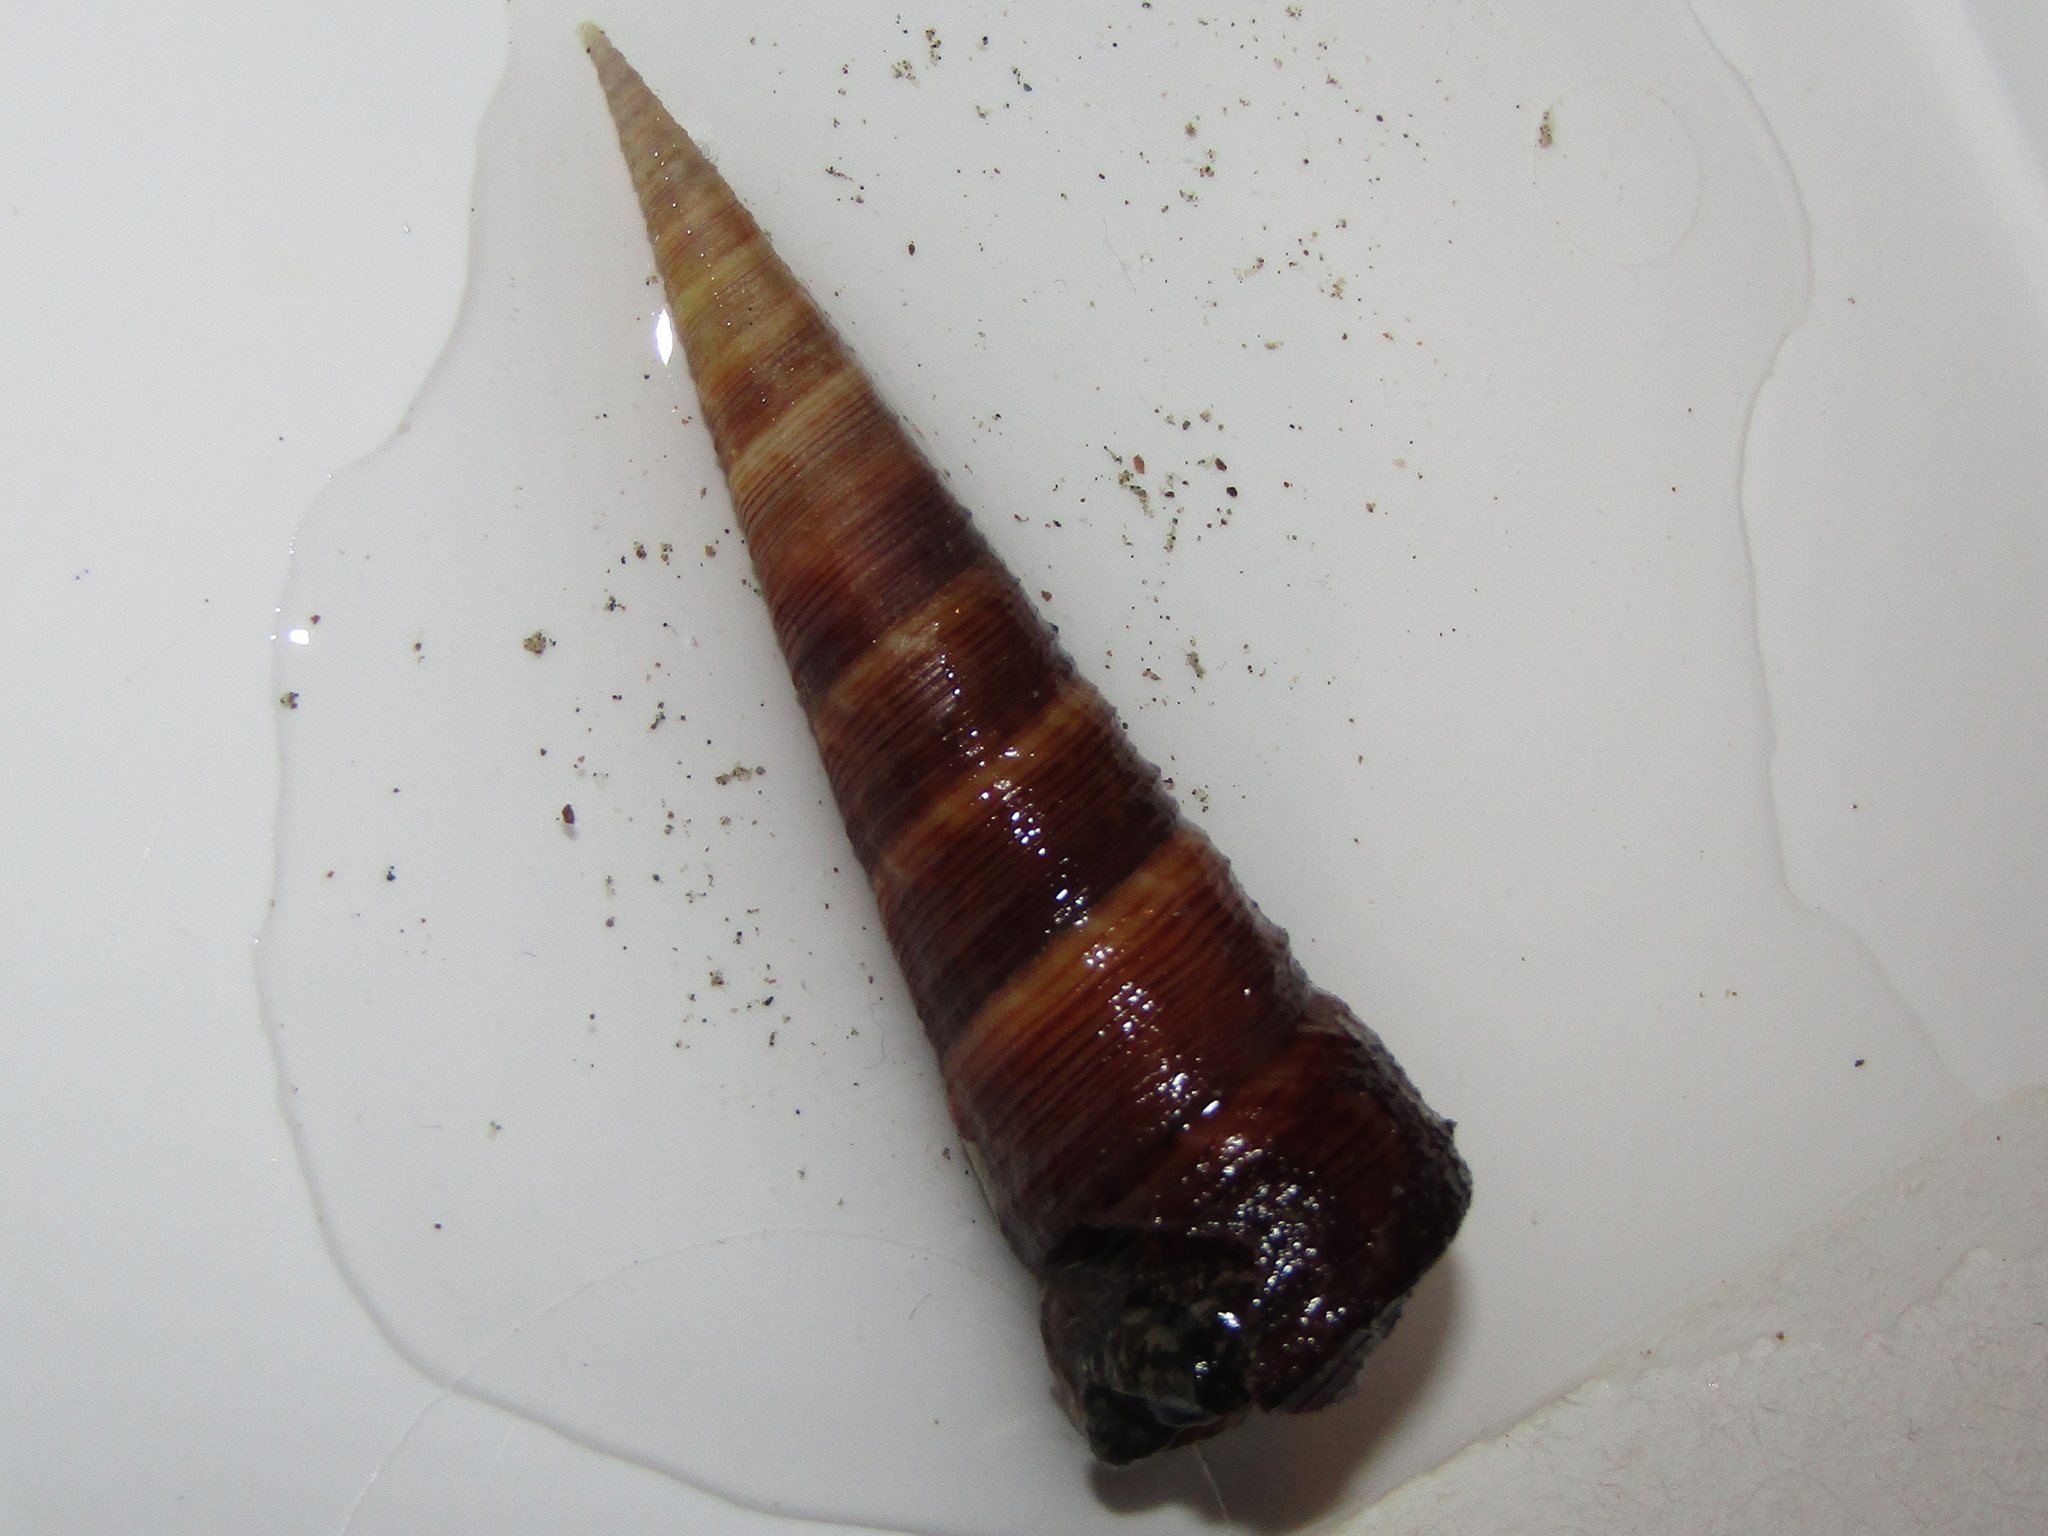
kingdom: Animalia
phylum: Mollusca
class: Gastropoda
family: Turritellidae
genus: Maoricolpus
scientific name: Maoricolpus roseus
